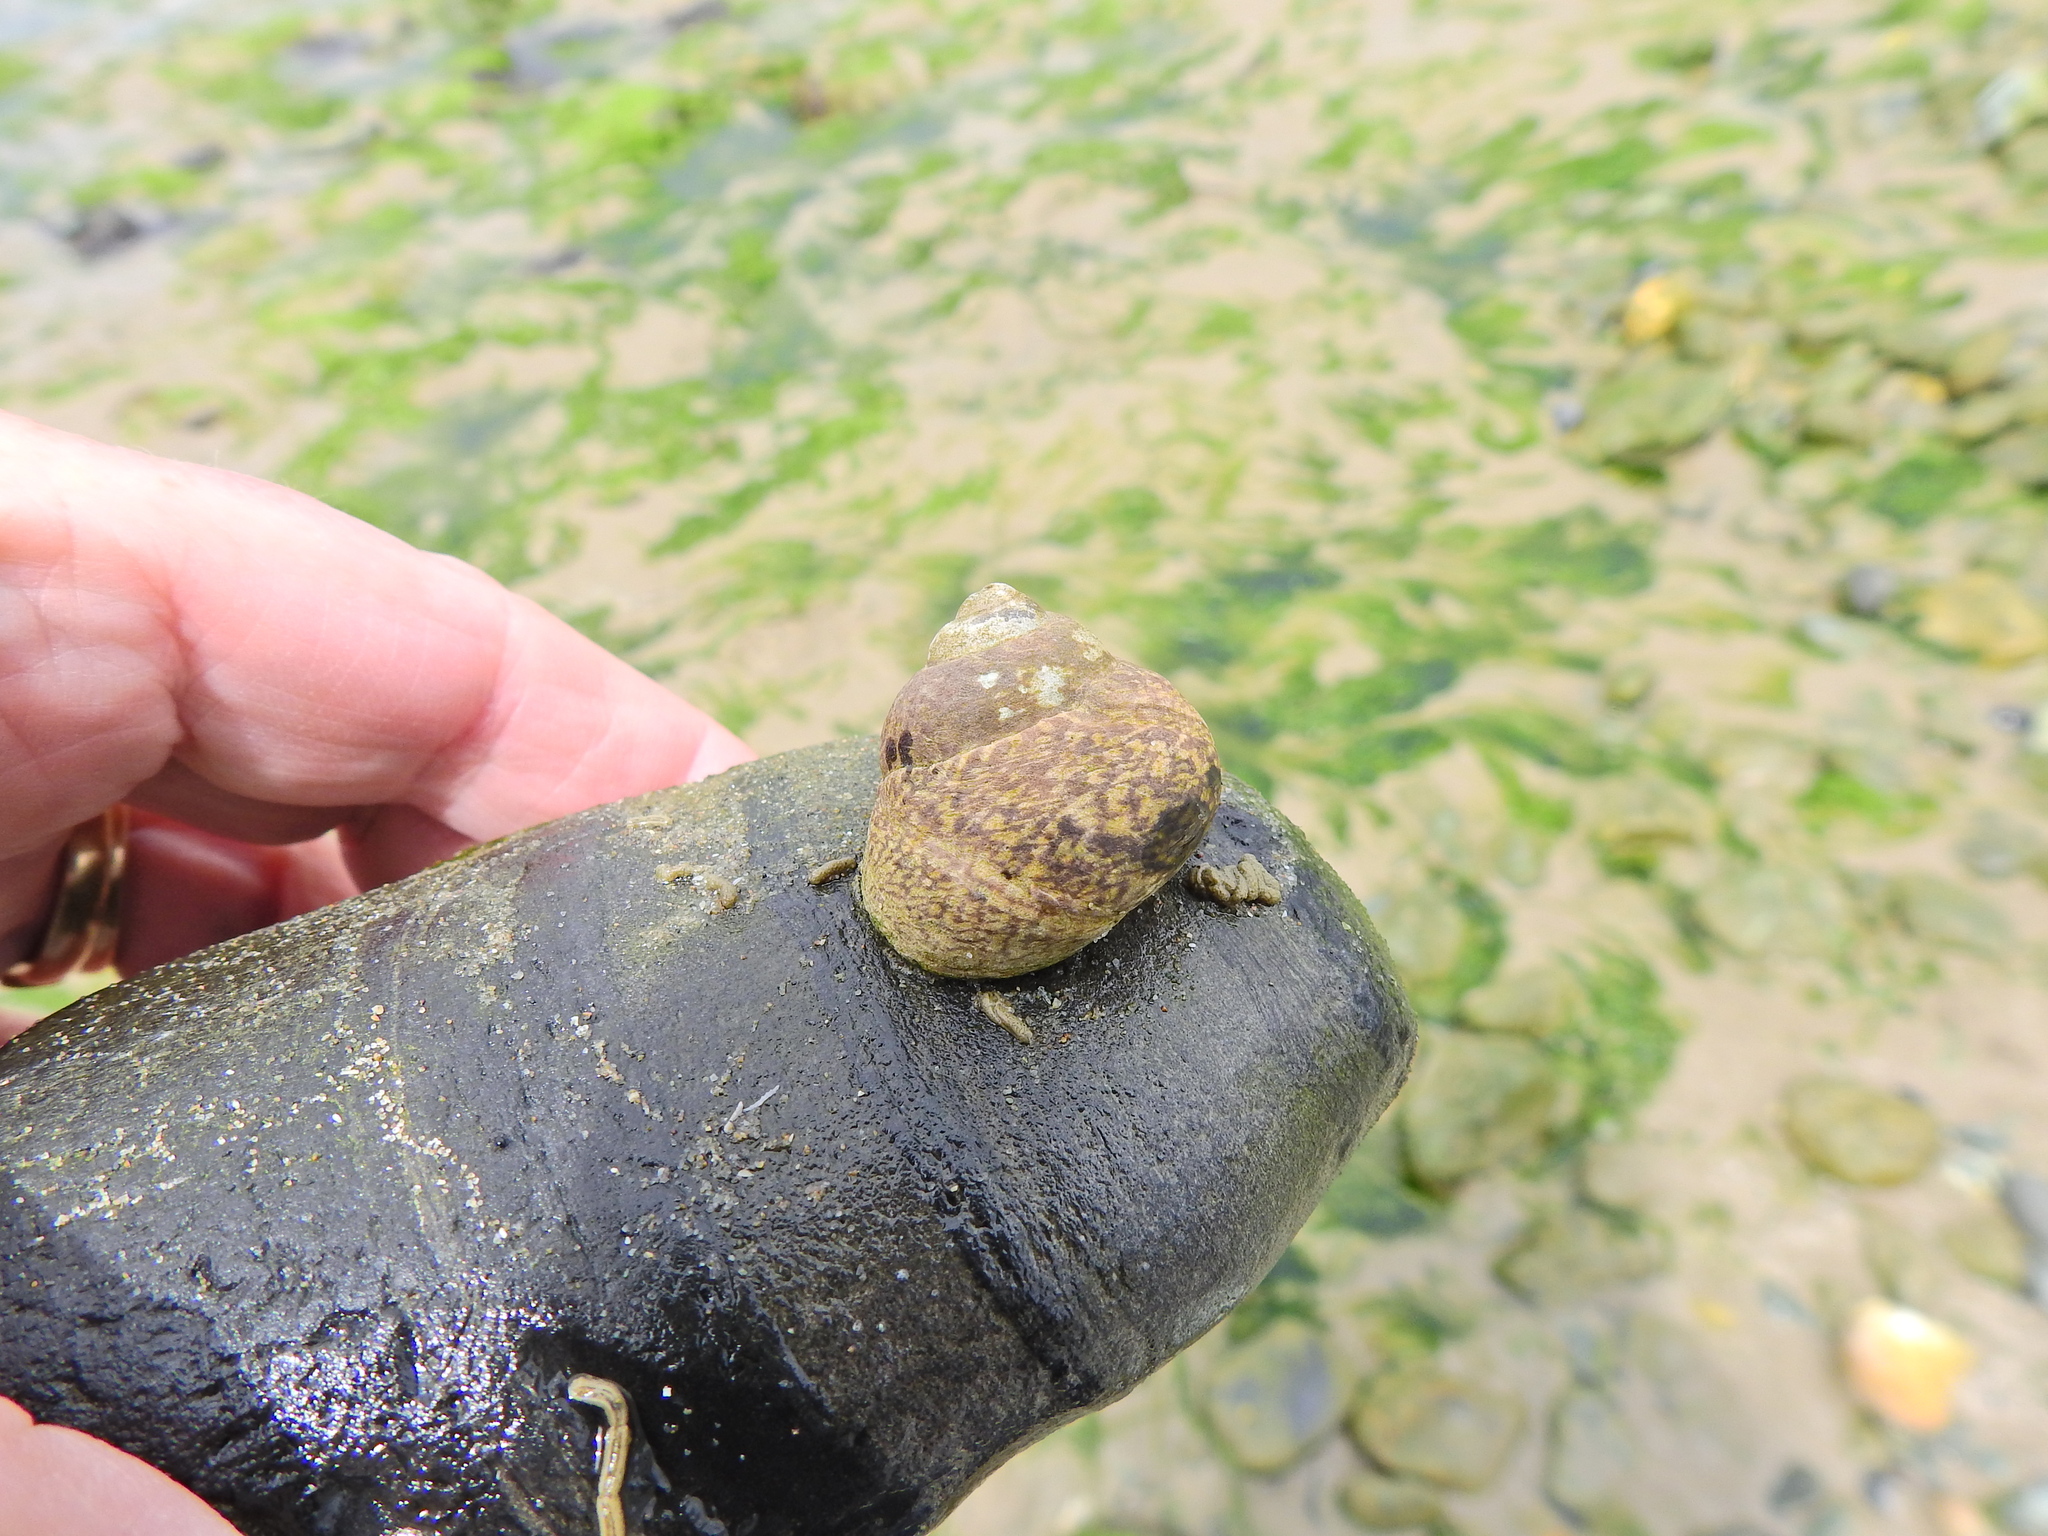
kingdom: Animalia
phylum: Mollusca
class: Gastropoda
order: Trochida
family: Trochidae
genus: Phorcus
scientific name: Phorcus lineatus
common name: Toothed top shell
